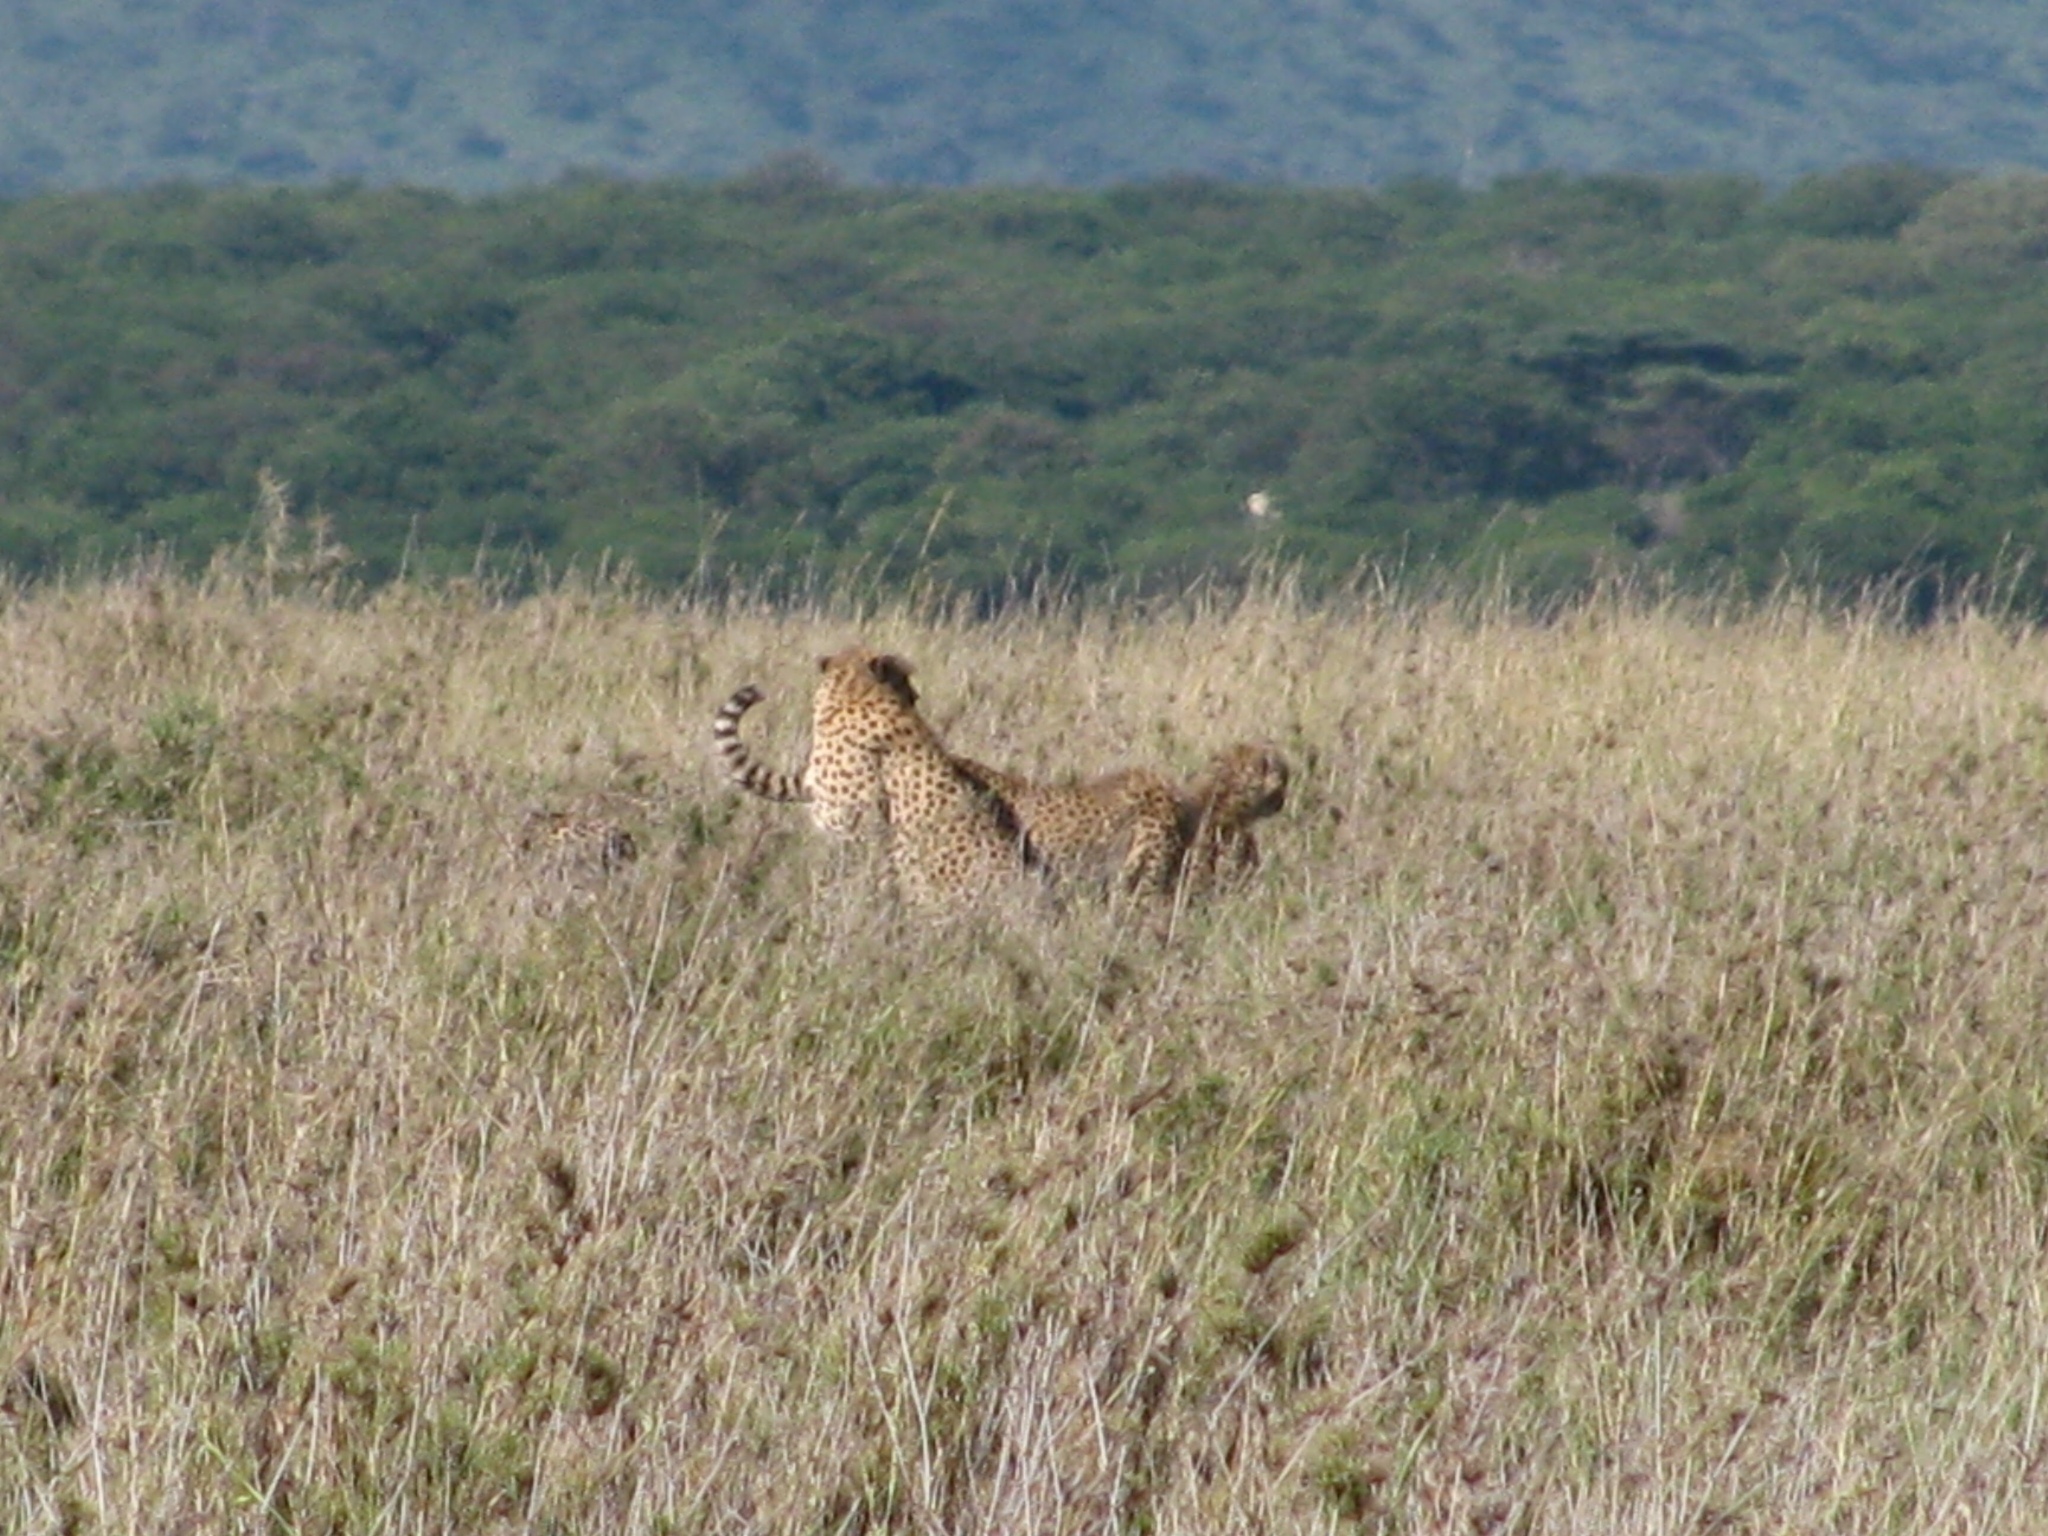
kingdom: Animalia
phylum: Chordata
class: Mammalia
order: Carnivora
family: Felidae
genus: Acinonyx
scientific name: Acinonyx jubatus
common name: Cheetah
